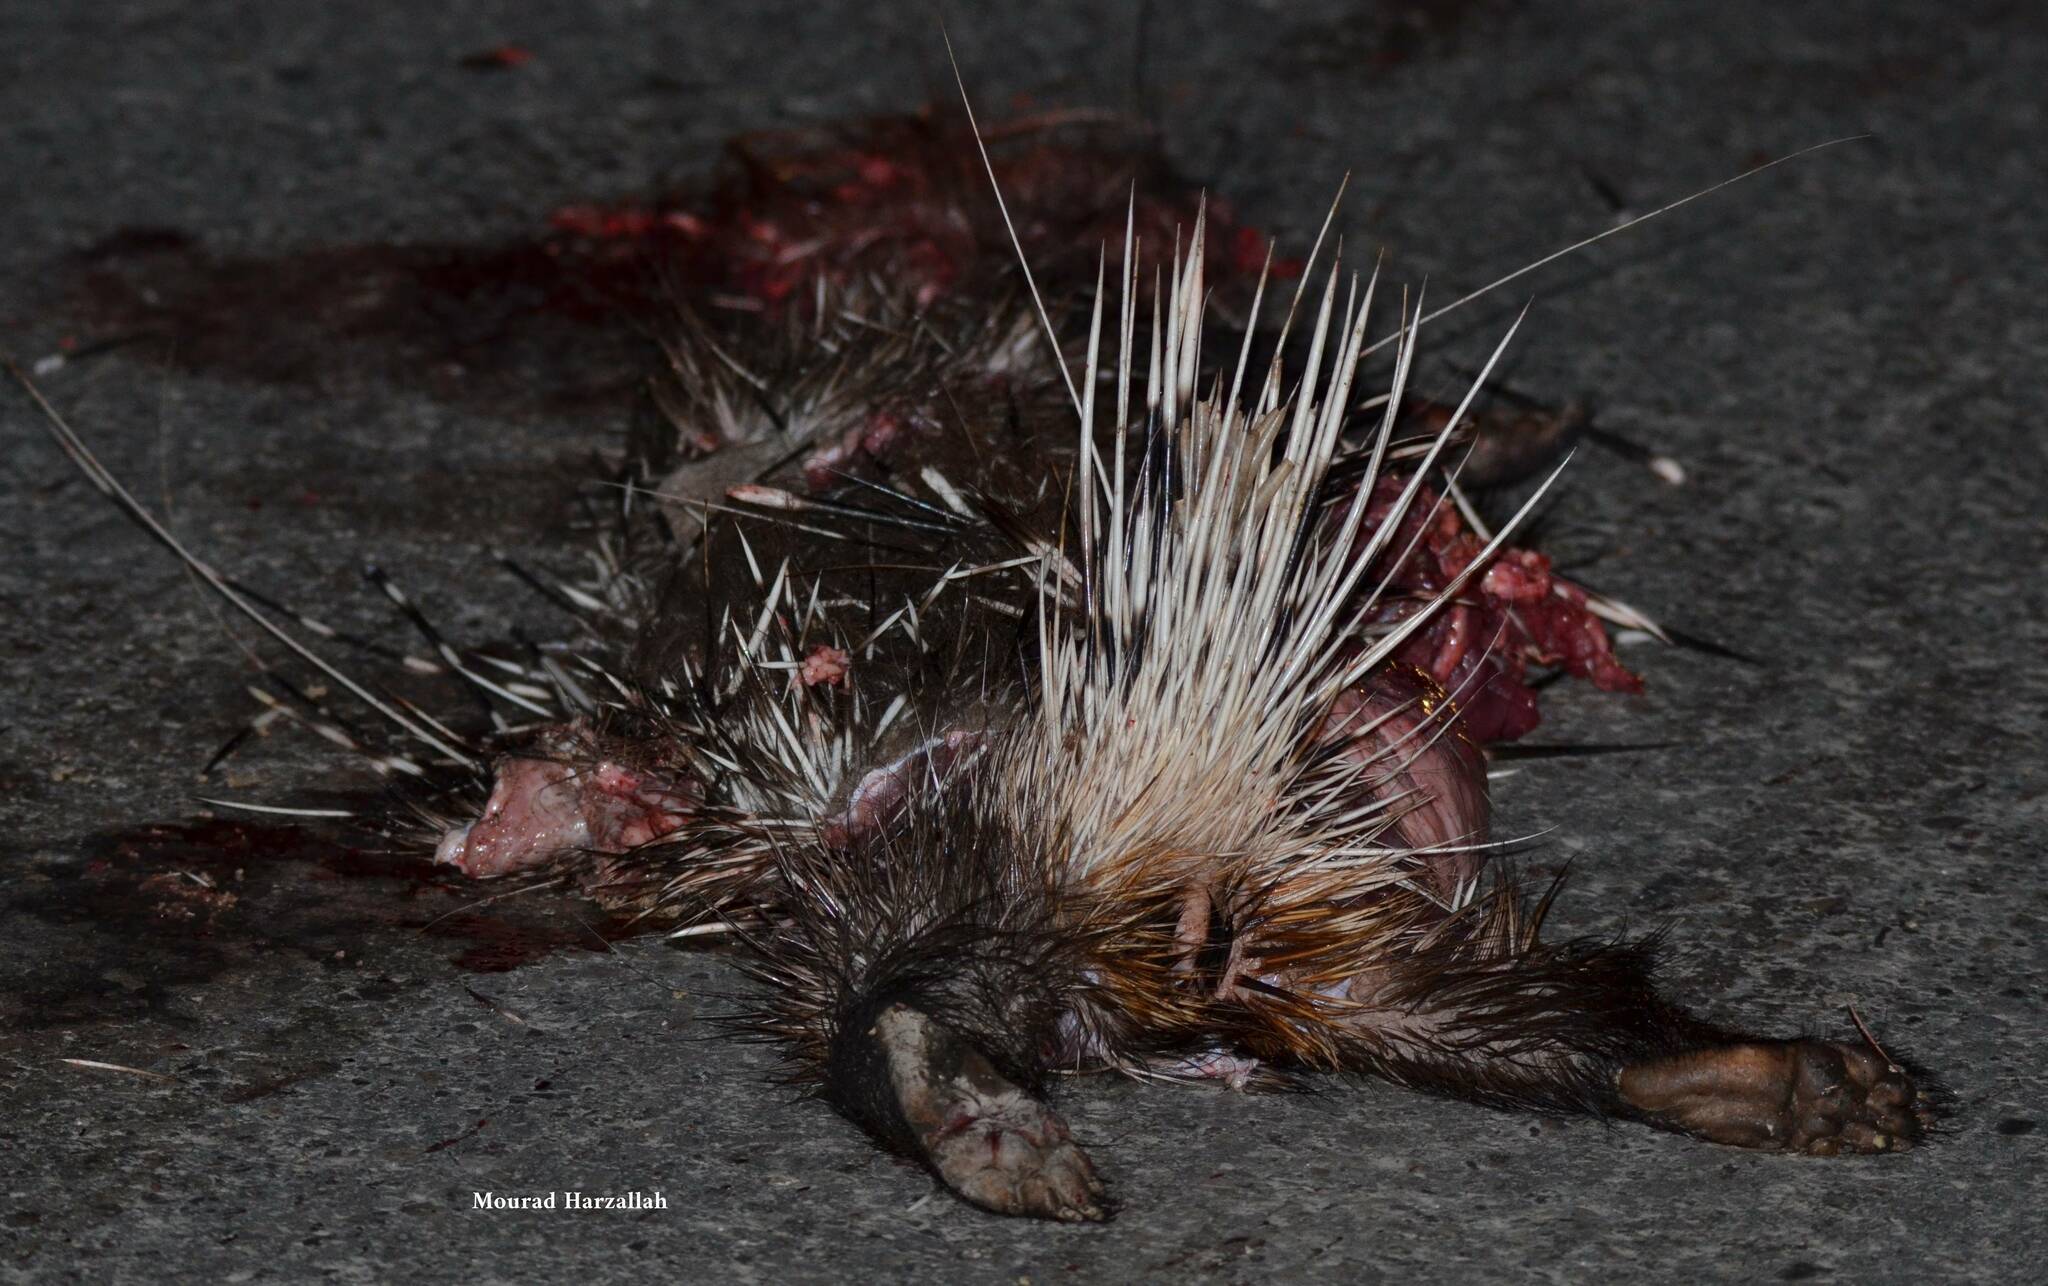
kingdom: Animalia
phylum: Chordata
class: Mammalia
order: Rodentia
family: Hystricidae
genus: Hystrix
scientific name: Hystrix cristata
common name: Crested porcupine
